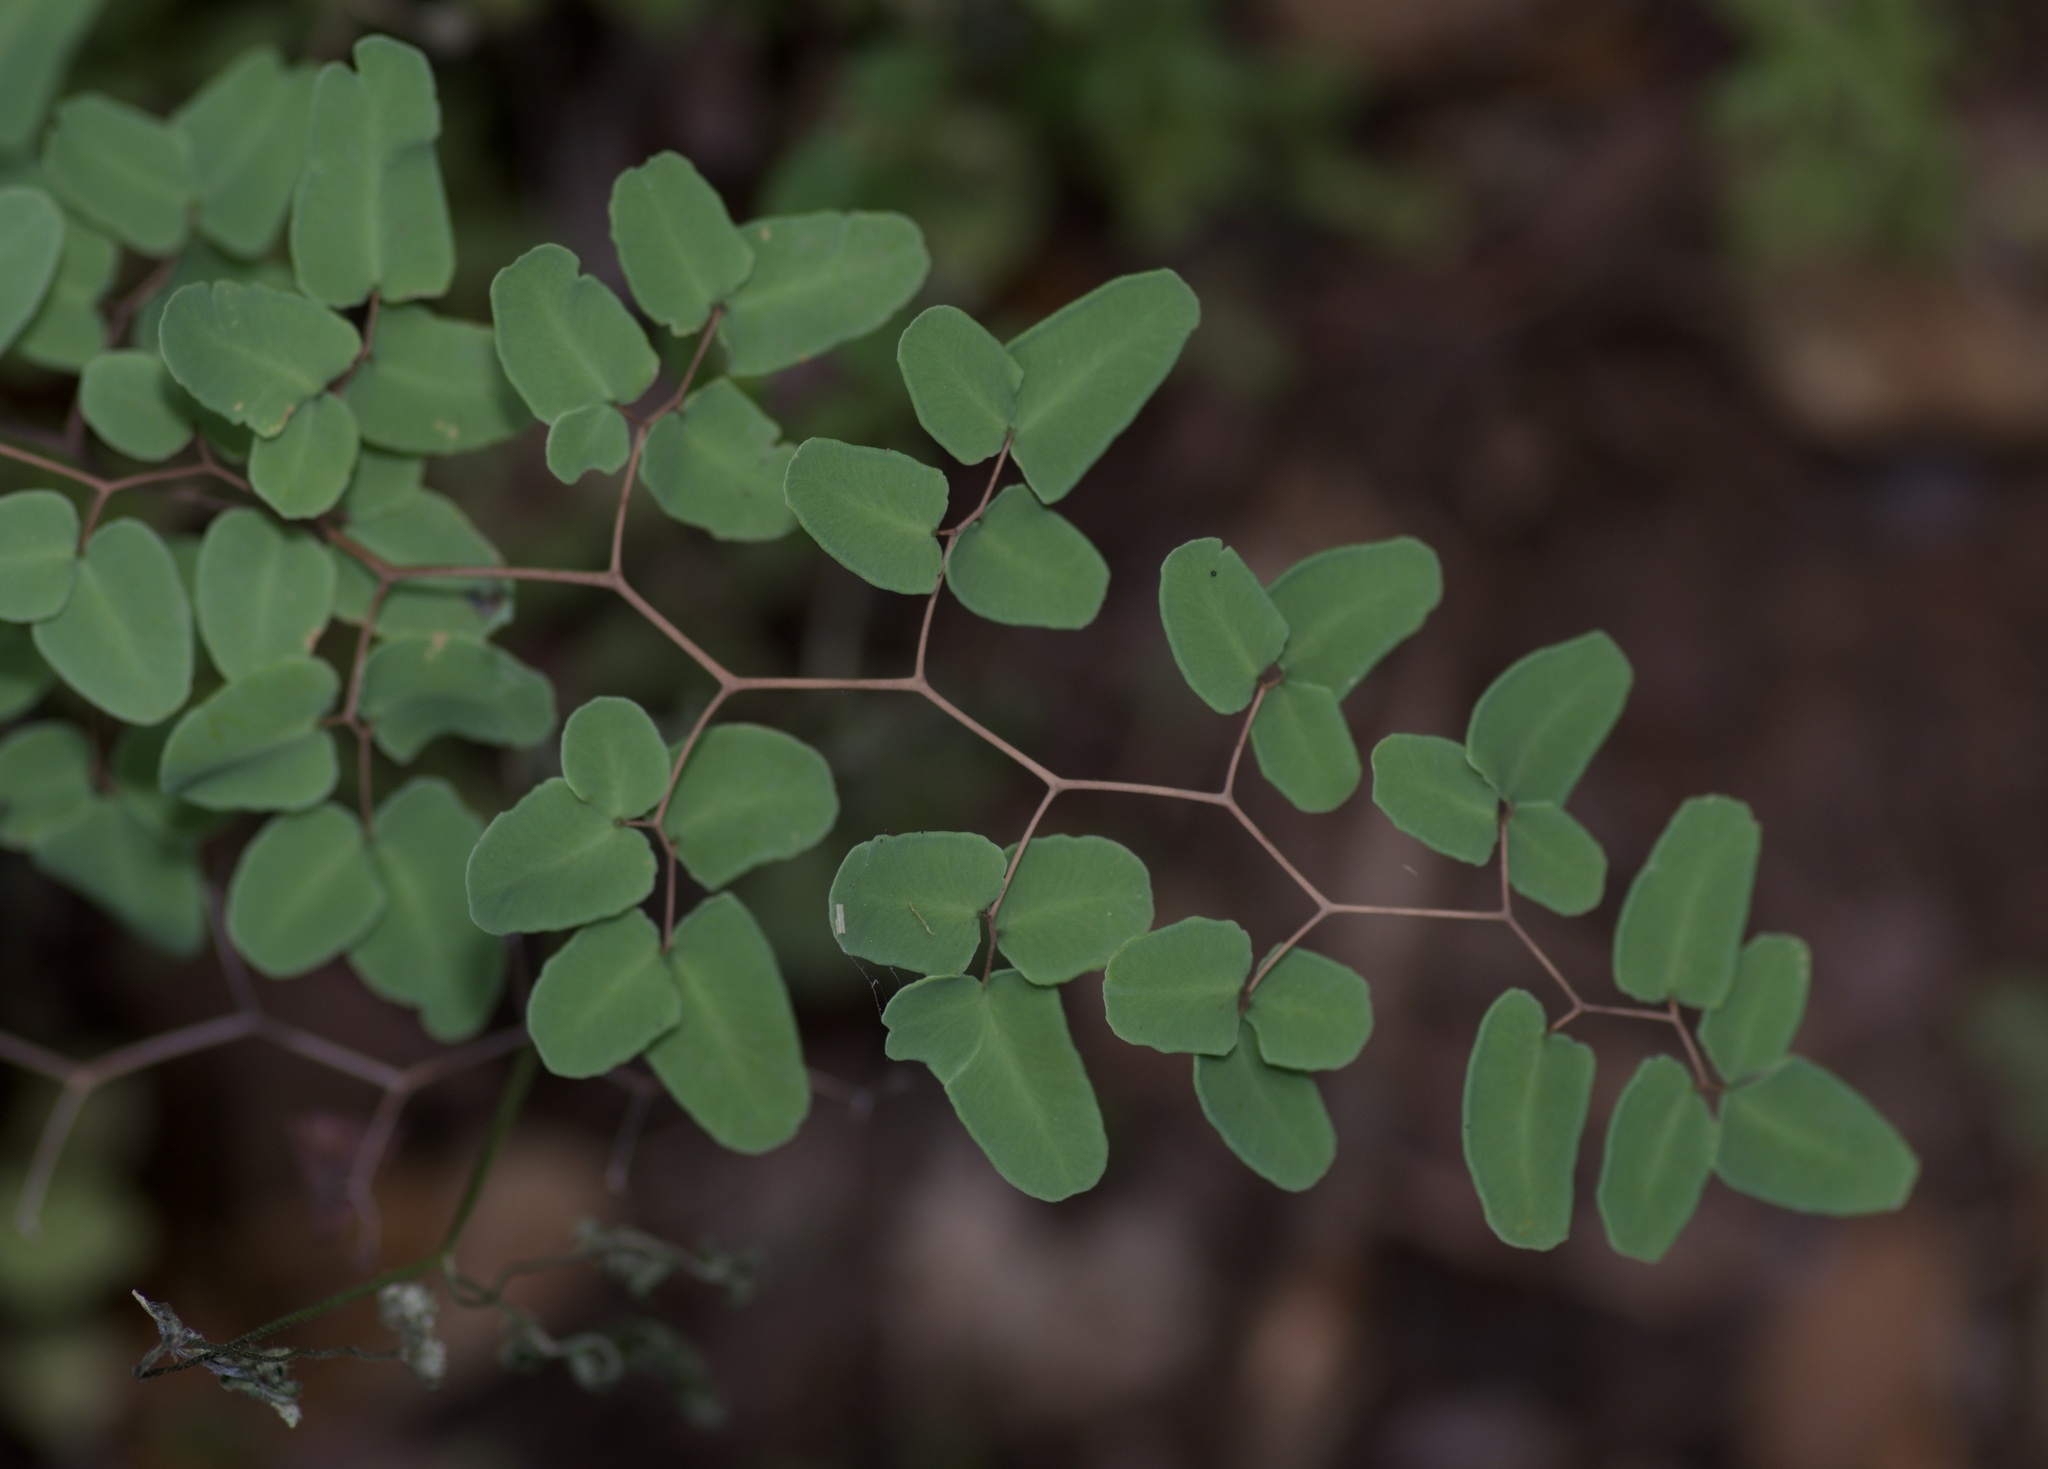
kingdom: Plantae
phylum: Tracheophyta
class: Polypodiopsida
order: Polypodiales
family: Pteridaceae
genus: Pellaea
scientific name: Pellaea ovata
